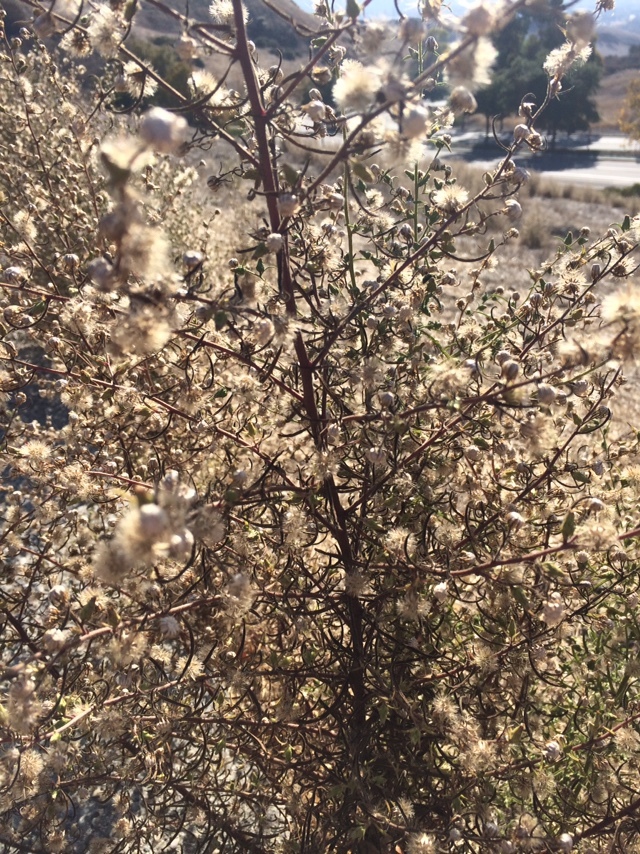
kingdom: Plantae
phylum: Tracheophyta
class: Magnoliopsida
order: Asterales
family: Asteraceae
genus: Dittrichia
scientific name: Dittrichia graveolens
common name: Stinking fleabane
